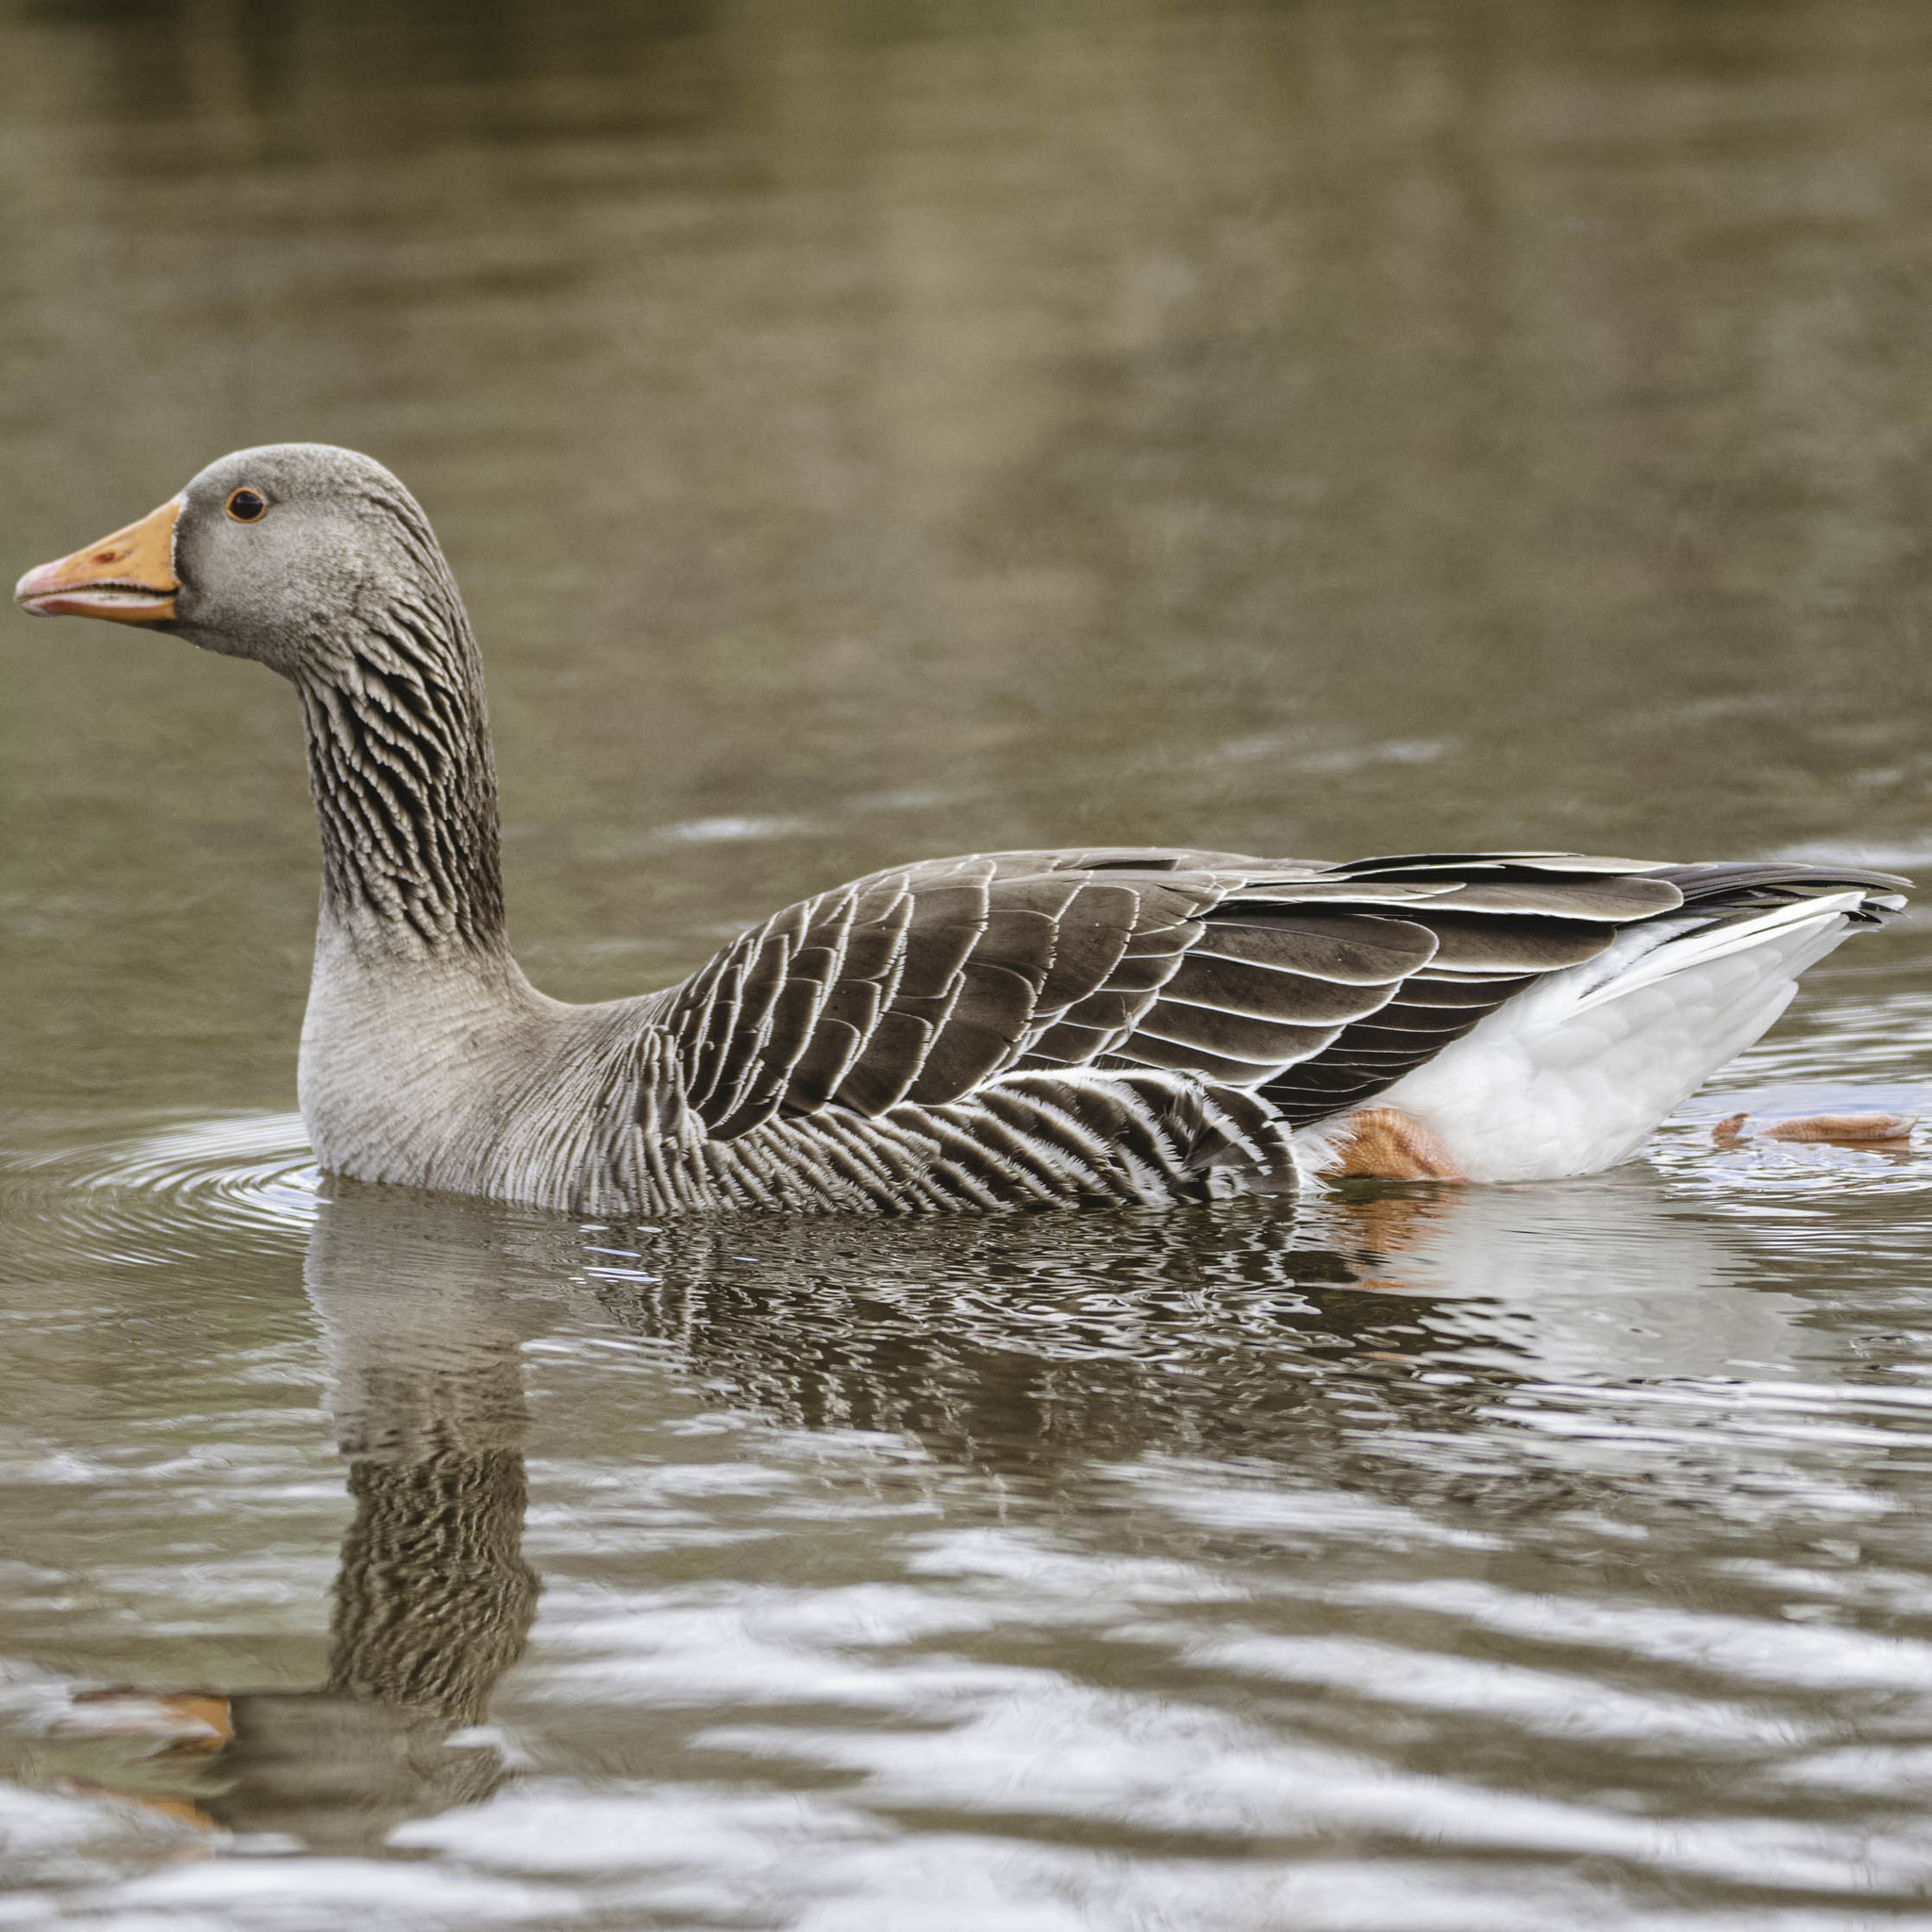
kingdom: Animalia
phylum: Chordata
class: Aves
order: Anseriformes
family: Anatidae
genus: Anser
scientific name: Anser anser
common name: Greylag goose
